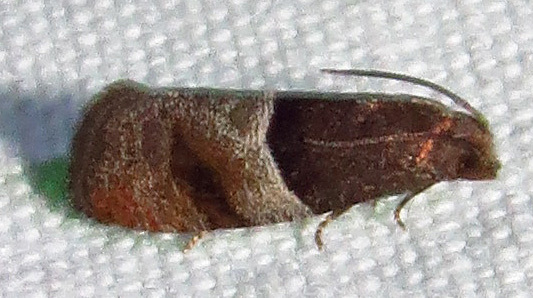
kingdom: Animalia
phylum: Arthropoda
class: Insecta
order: Lepidoptera
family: Tortricidae
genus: Larisa
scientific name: Larisa subsolana
